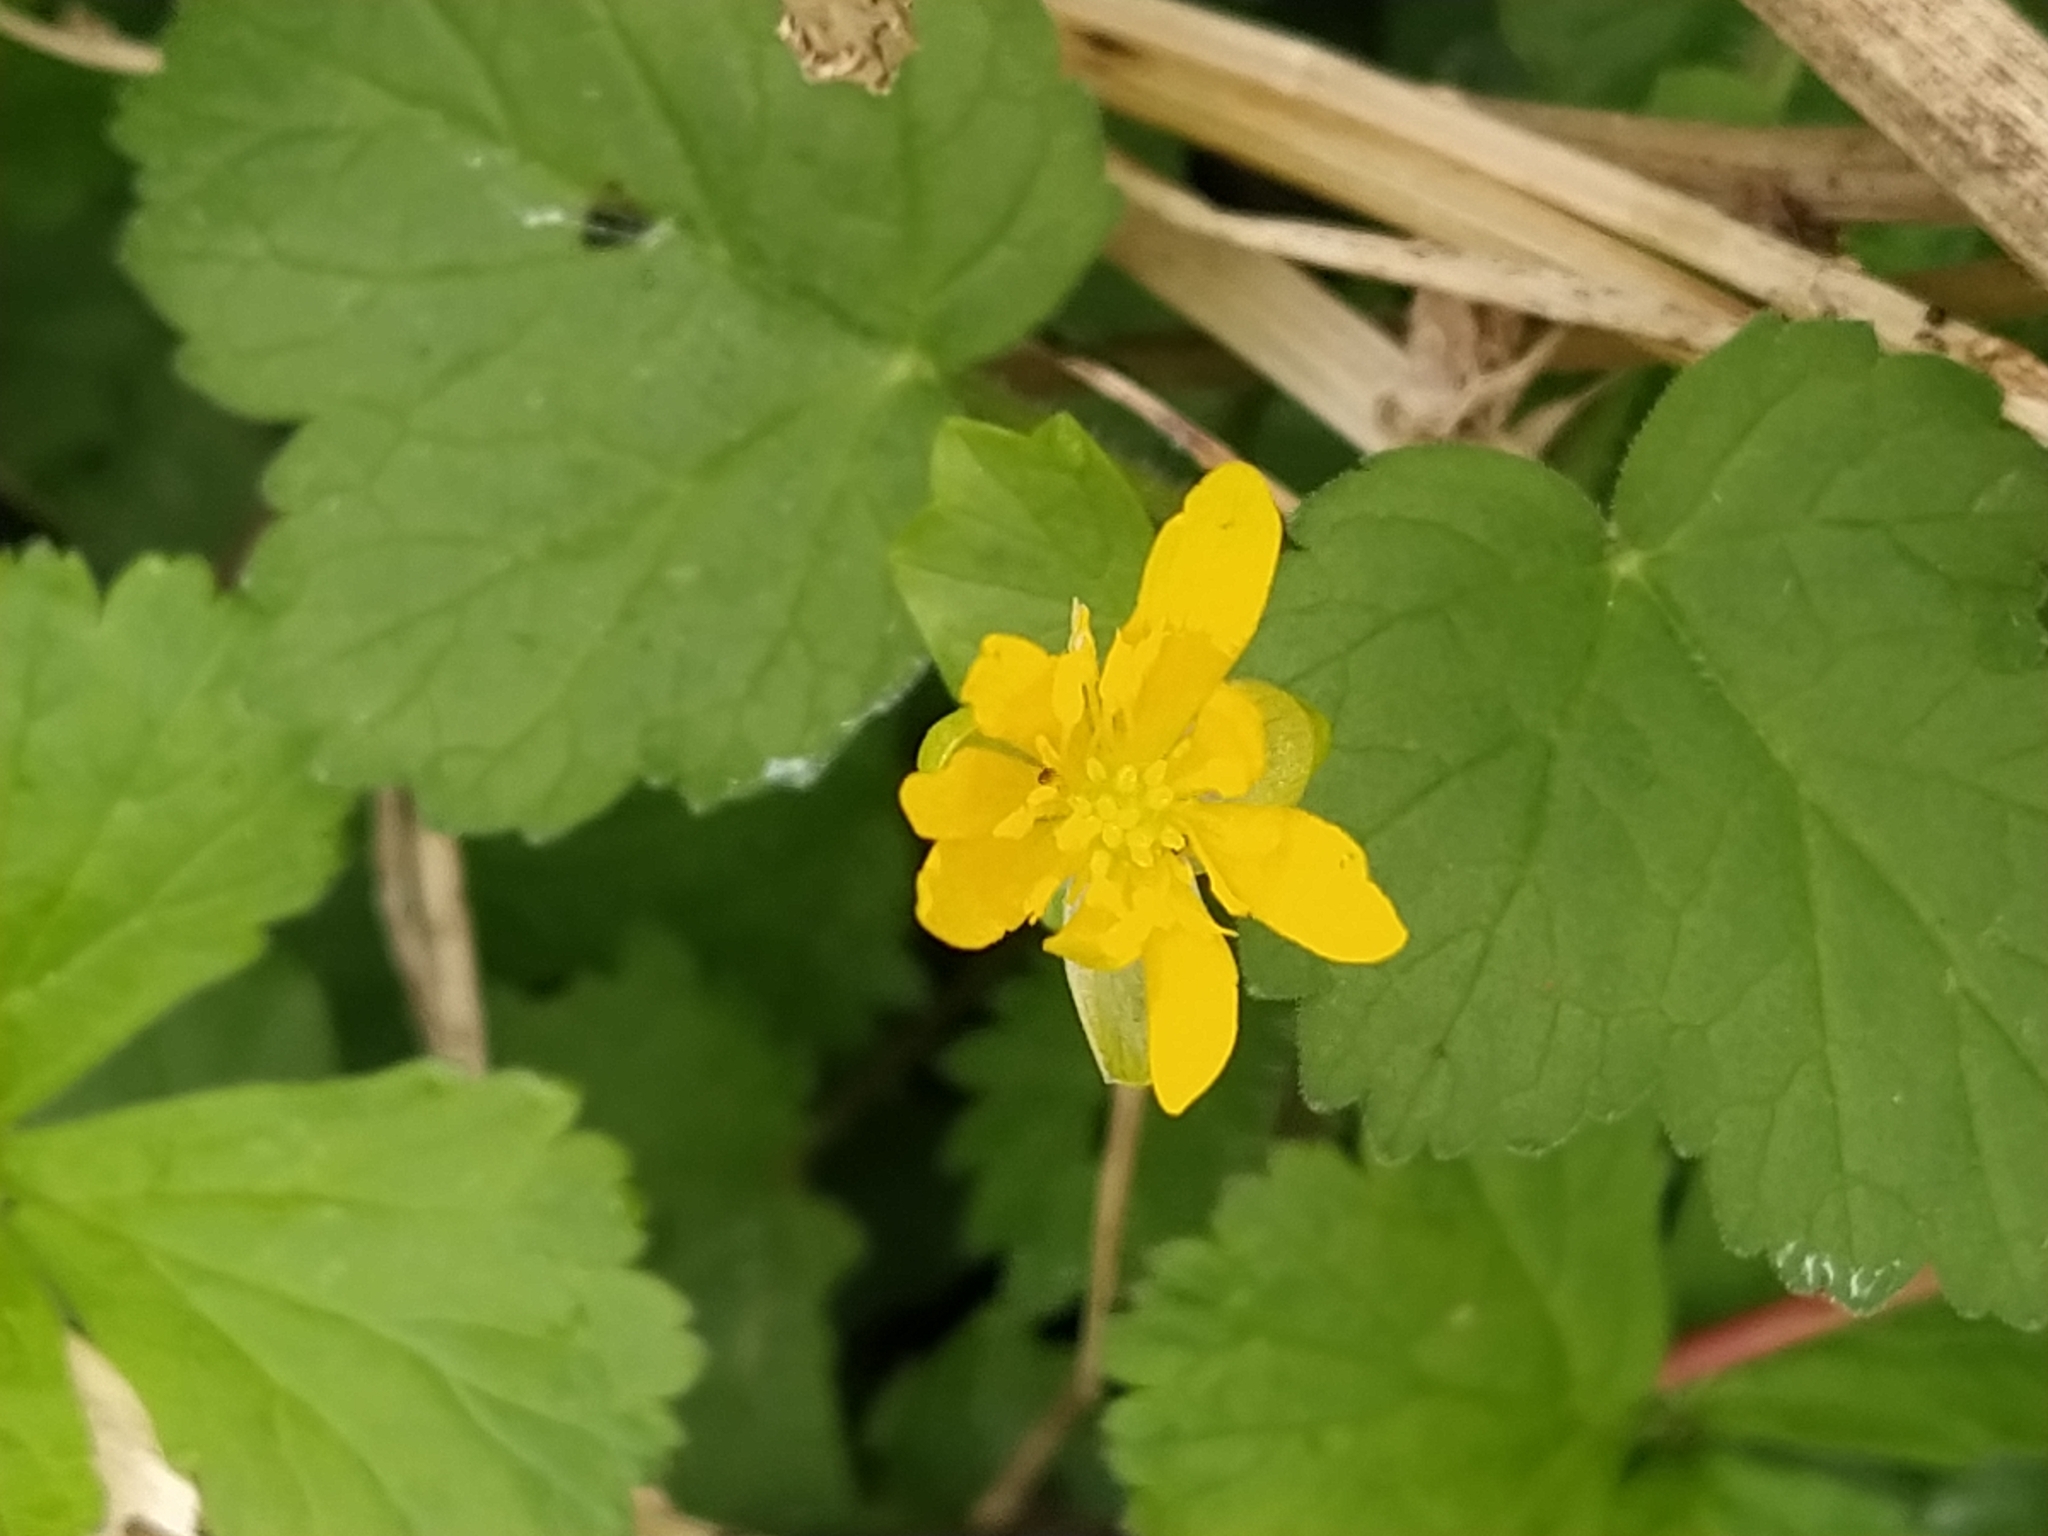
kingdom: Plantae
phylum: Tracheophyta
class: Magnoliopsida
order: Ranunculales
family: Ranunculaceae
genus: Ficaria
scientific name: Ficaria verna
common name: Lesser celandine
